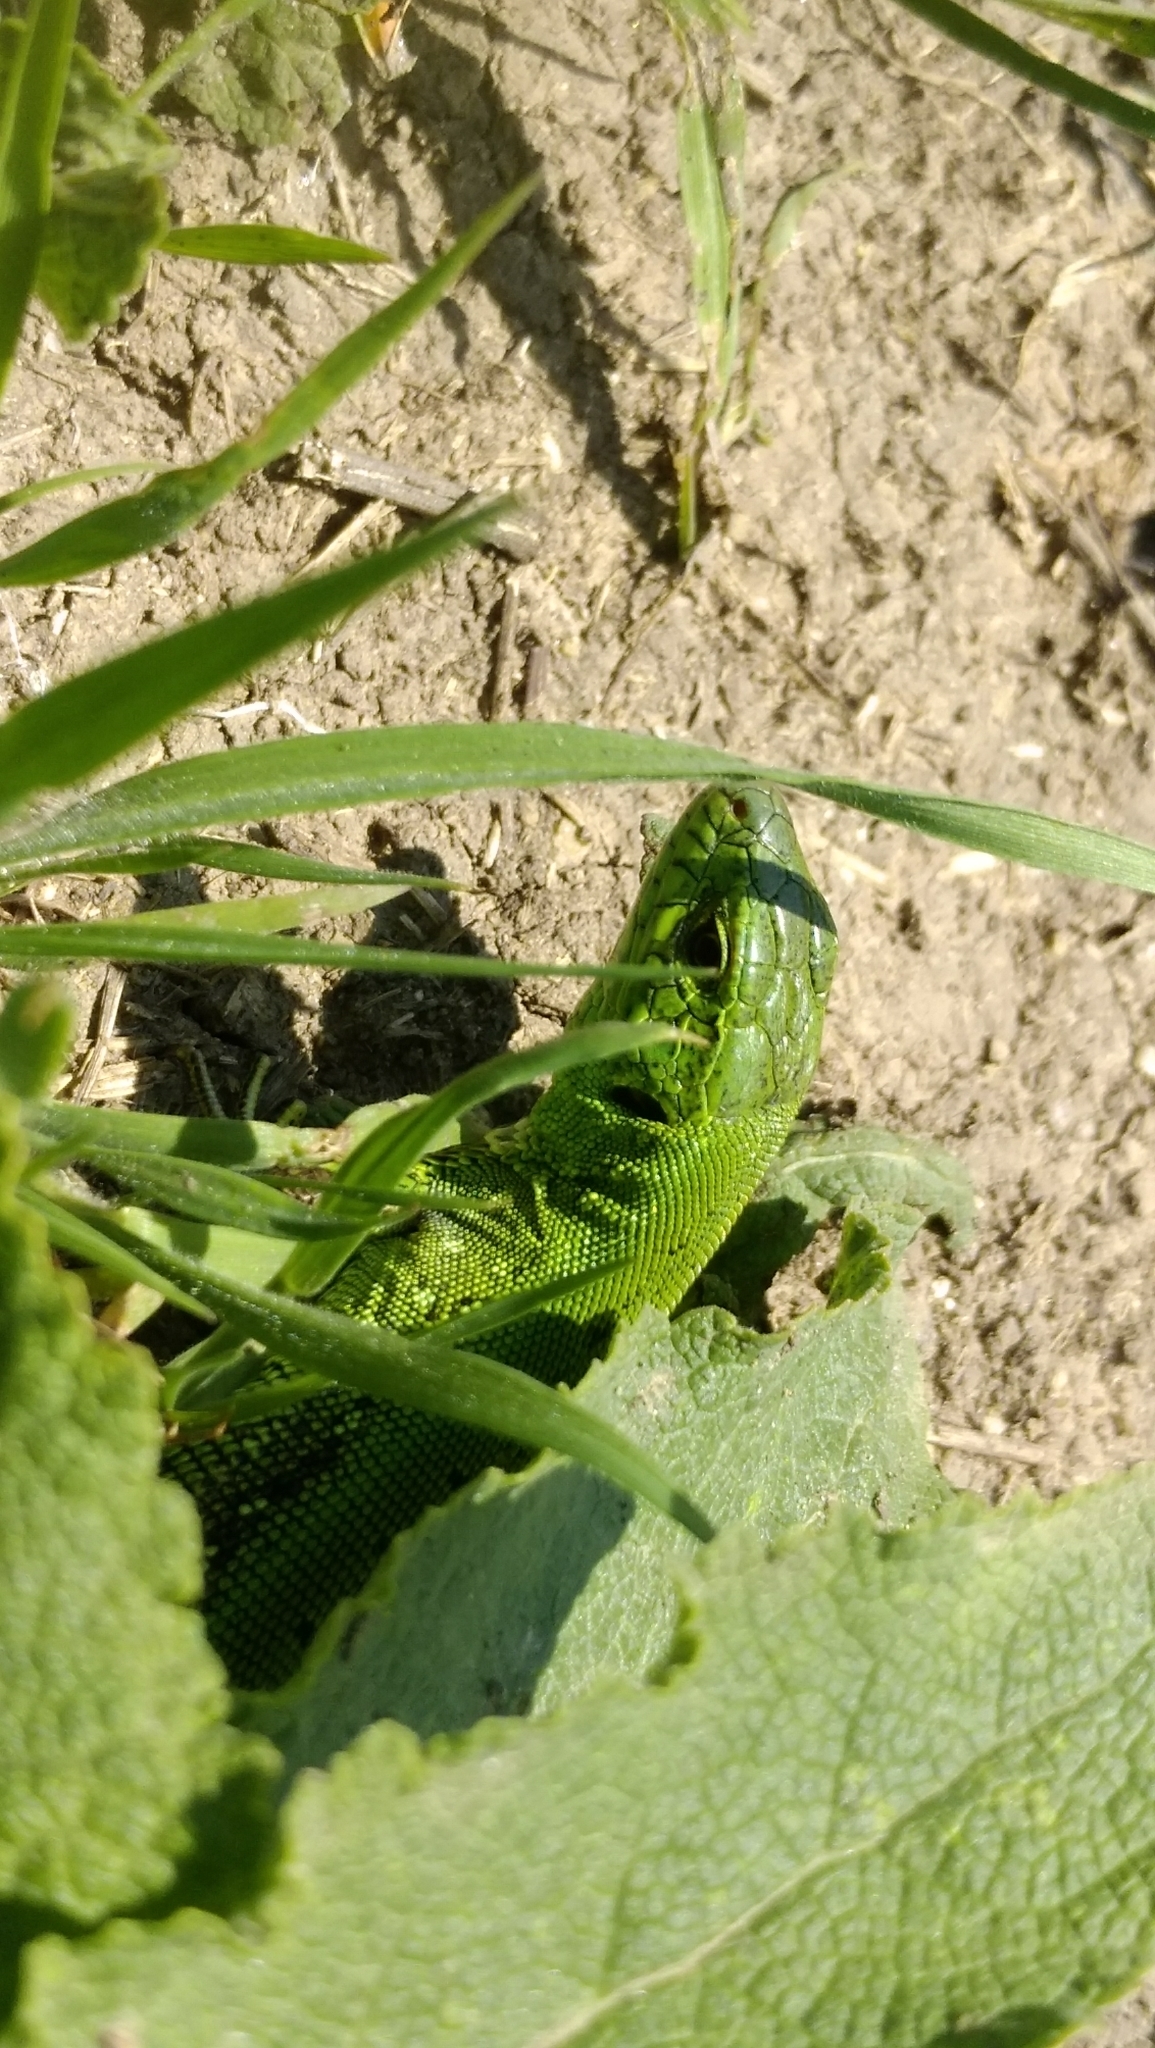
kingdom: Animalia
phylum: Chordata
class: Squamata
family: Lacertidae
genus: Lacerta
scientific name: Lacerta agilis
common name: Sand lizard
